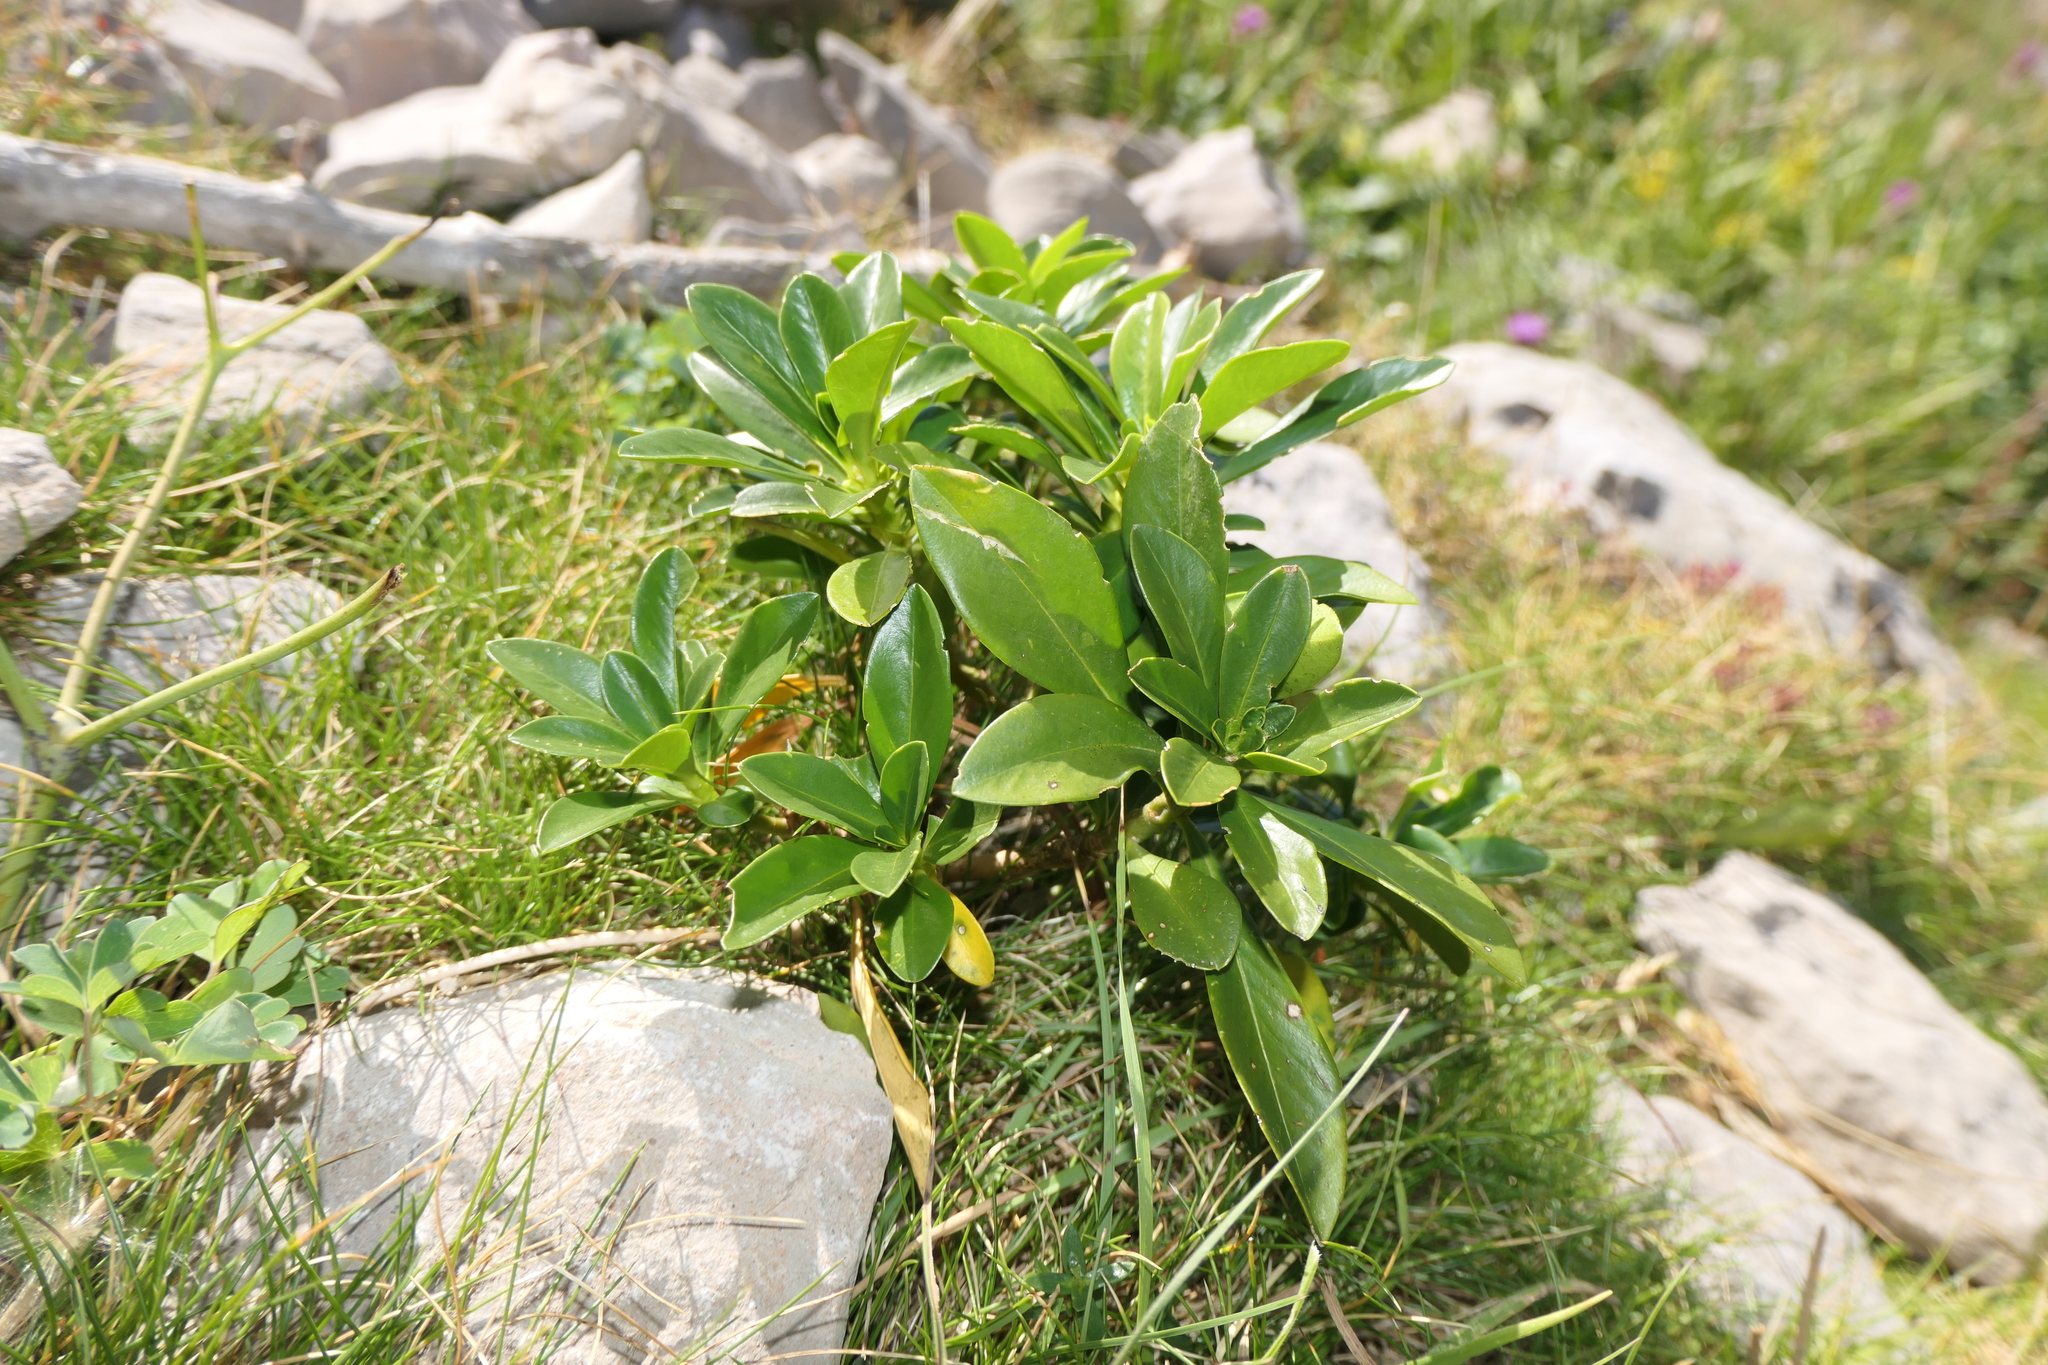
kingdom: Plantae
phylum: Tracheophyta
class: Magnoliopsida
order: Malvales
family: Thymelaeaceae
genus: Daphne
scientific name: Daphne laureola
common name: Spurge-laurel
